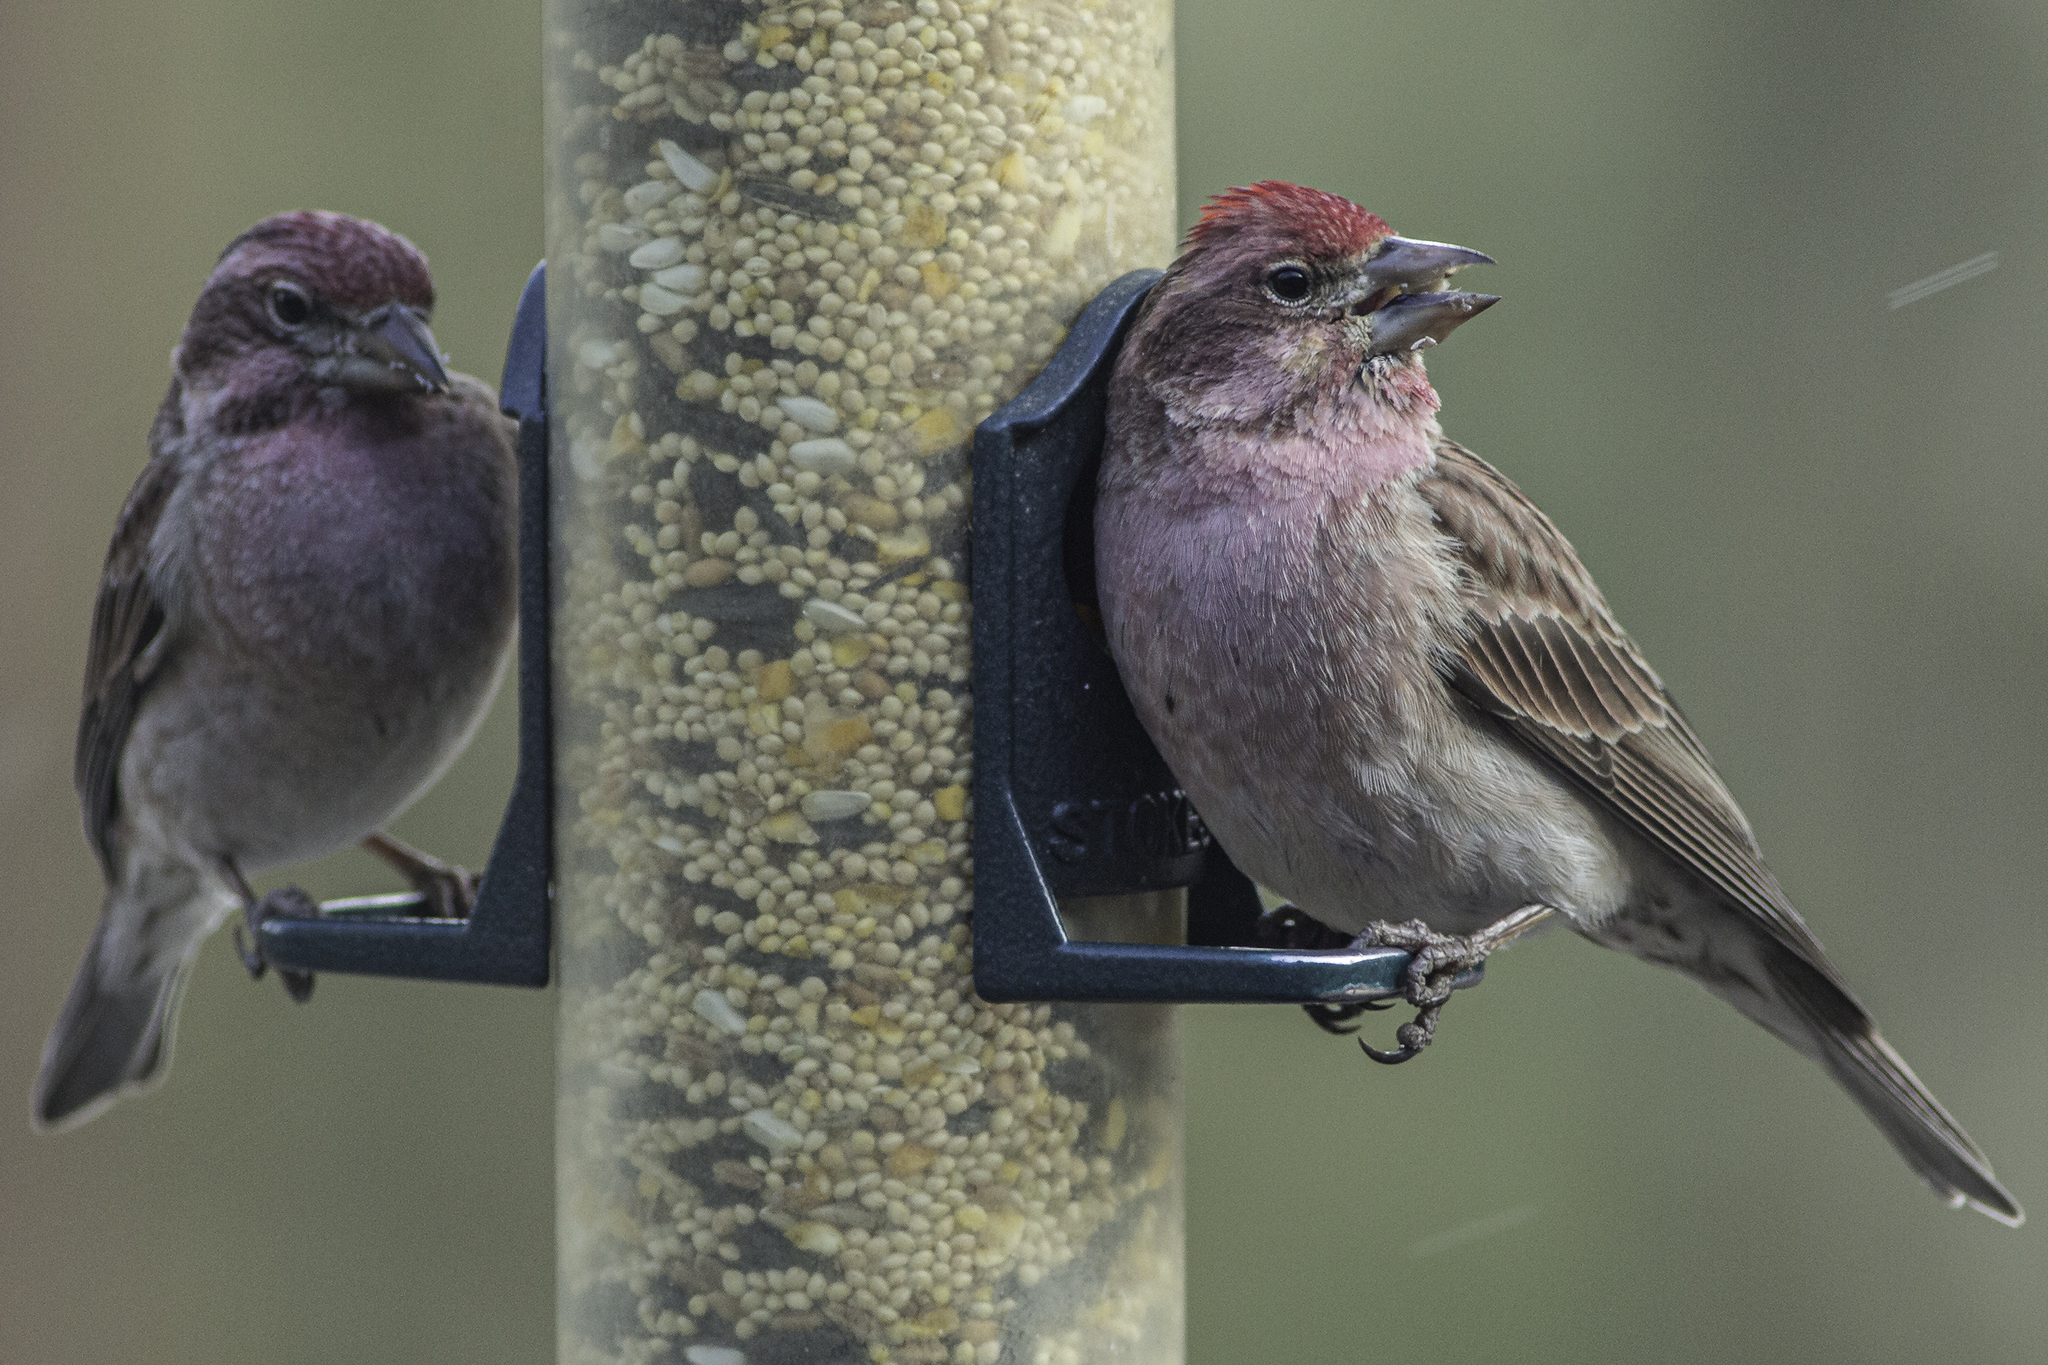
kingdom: Animalia
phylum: Chordata
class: Aves
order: Passeriformes
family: Fringillidae
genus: Haemorhous
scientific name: Haemorhous cassinii
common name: Cassin's finch
